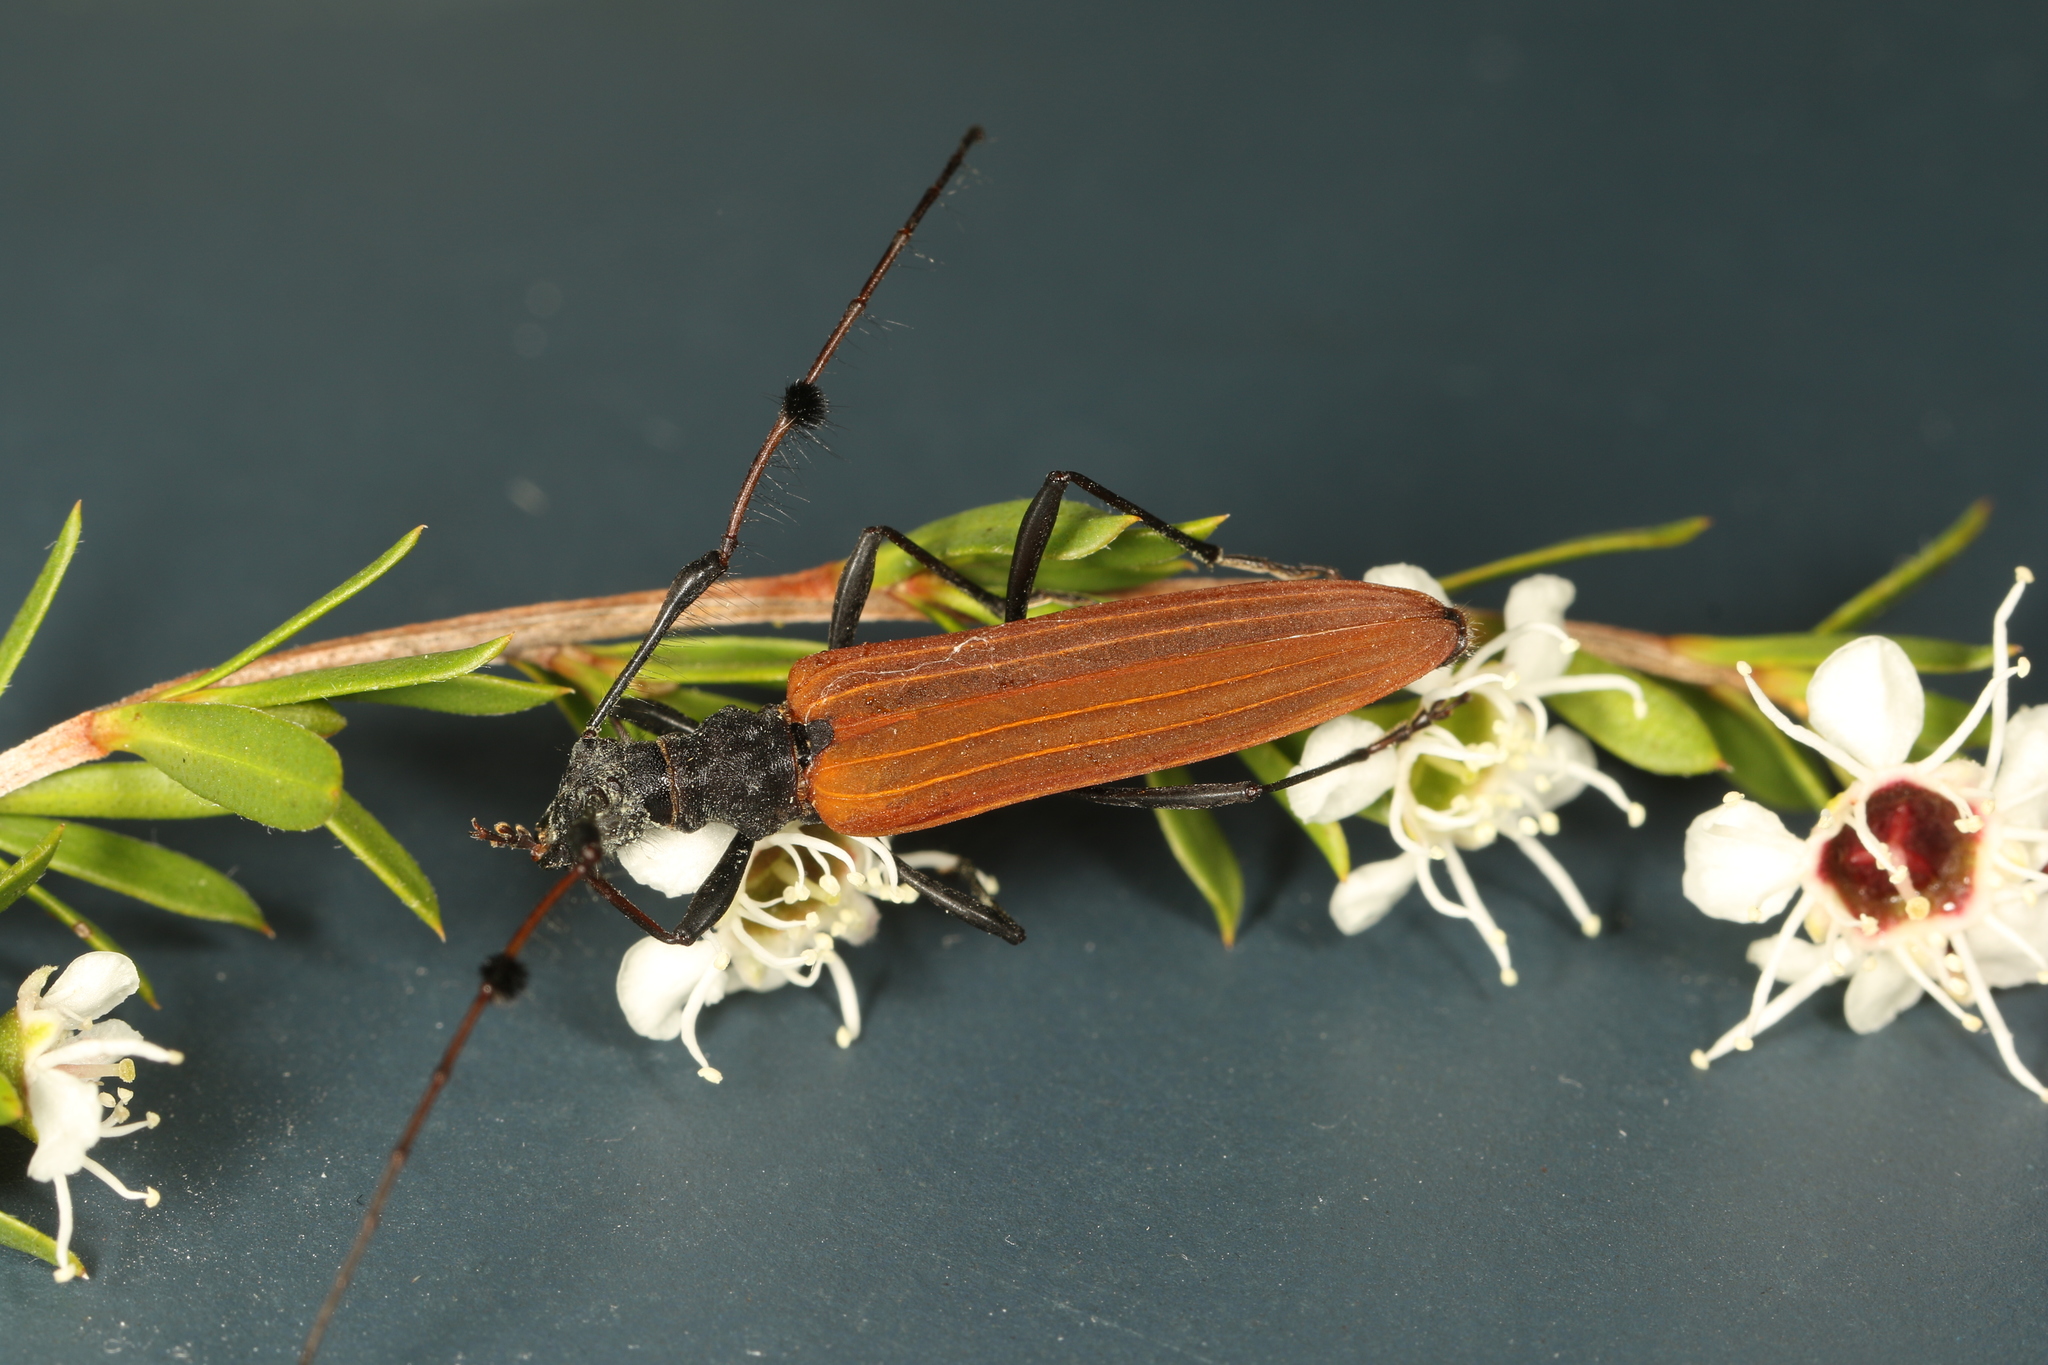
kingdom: Animalia
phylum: Arthropoda
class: Insecta
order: Coleoptera
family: Cerambycidae
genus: Tropis
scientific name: Tropis
